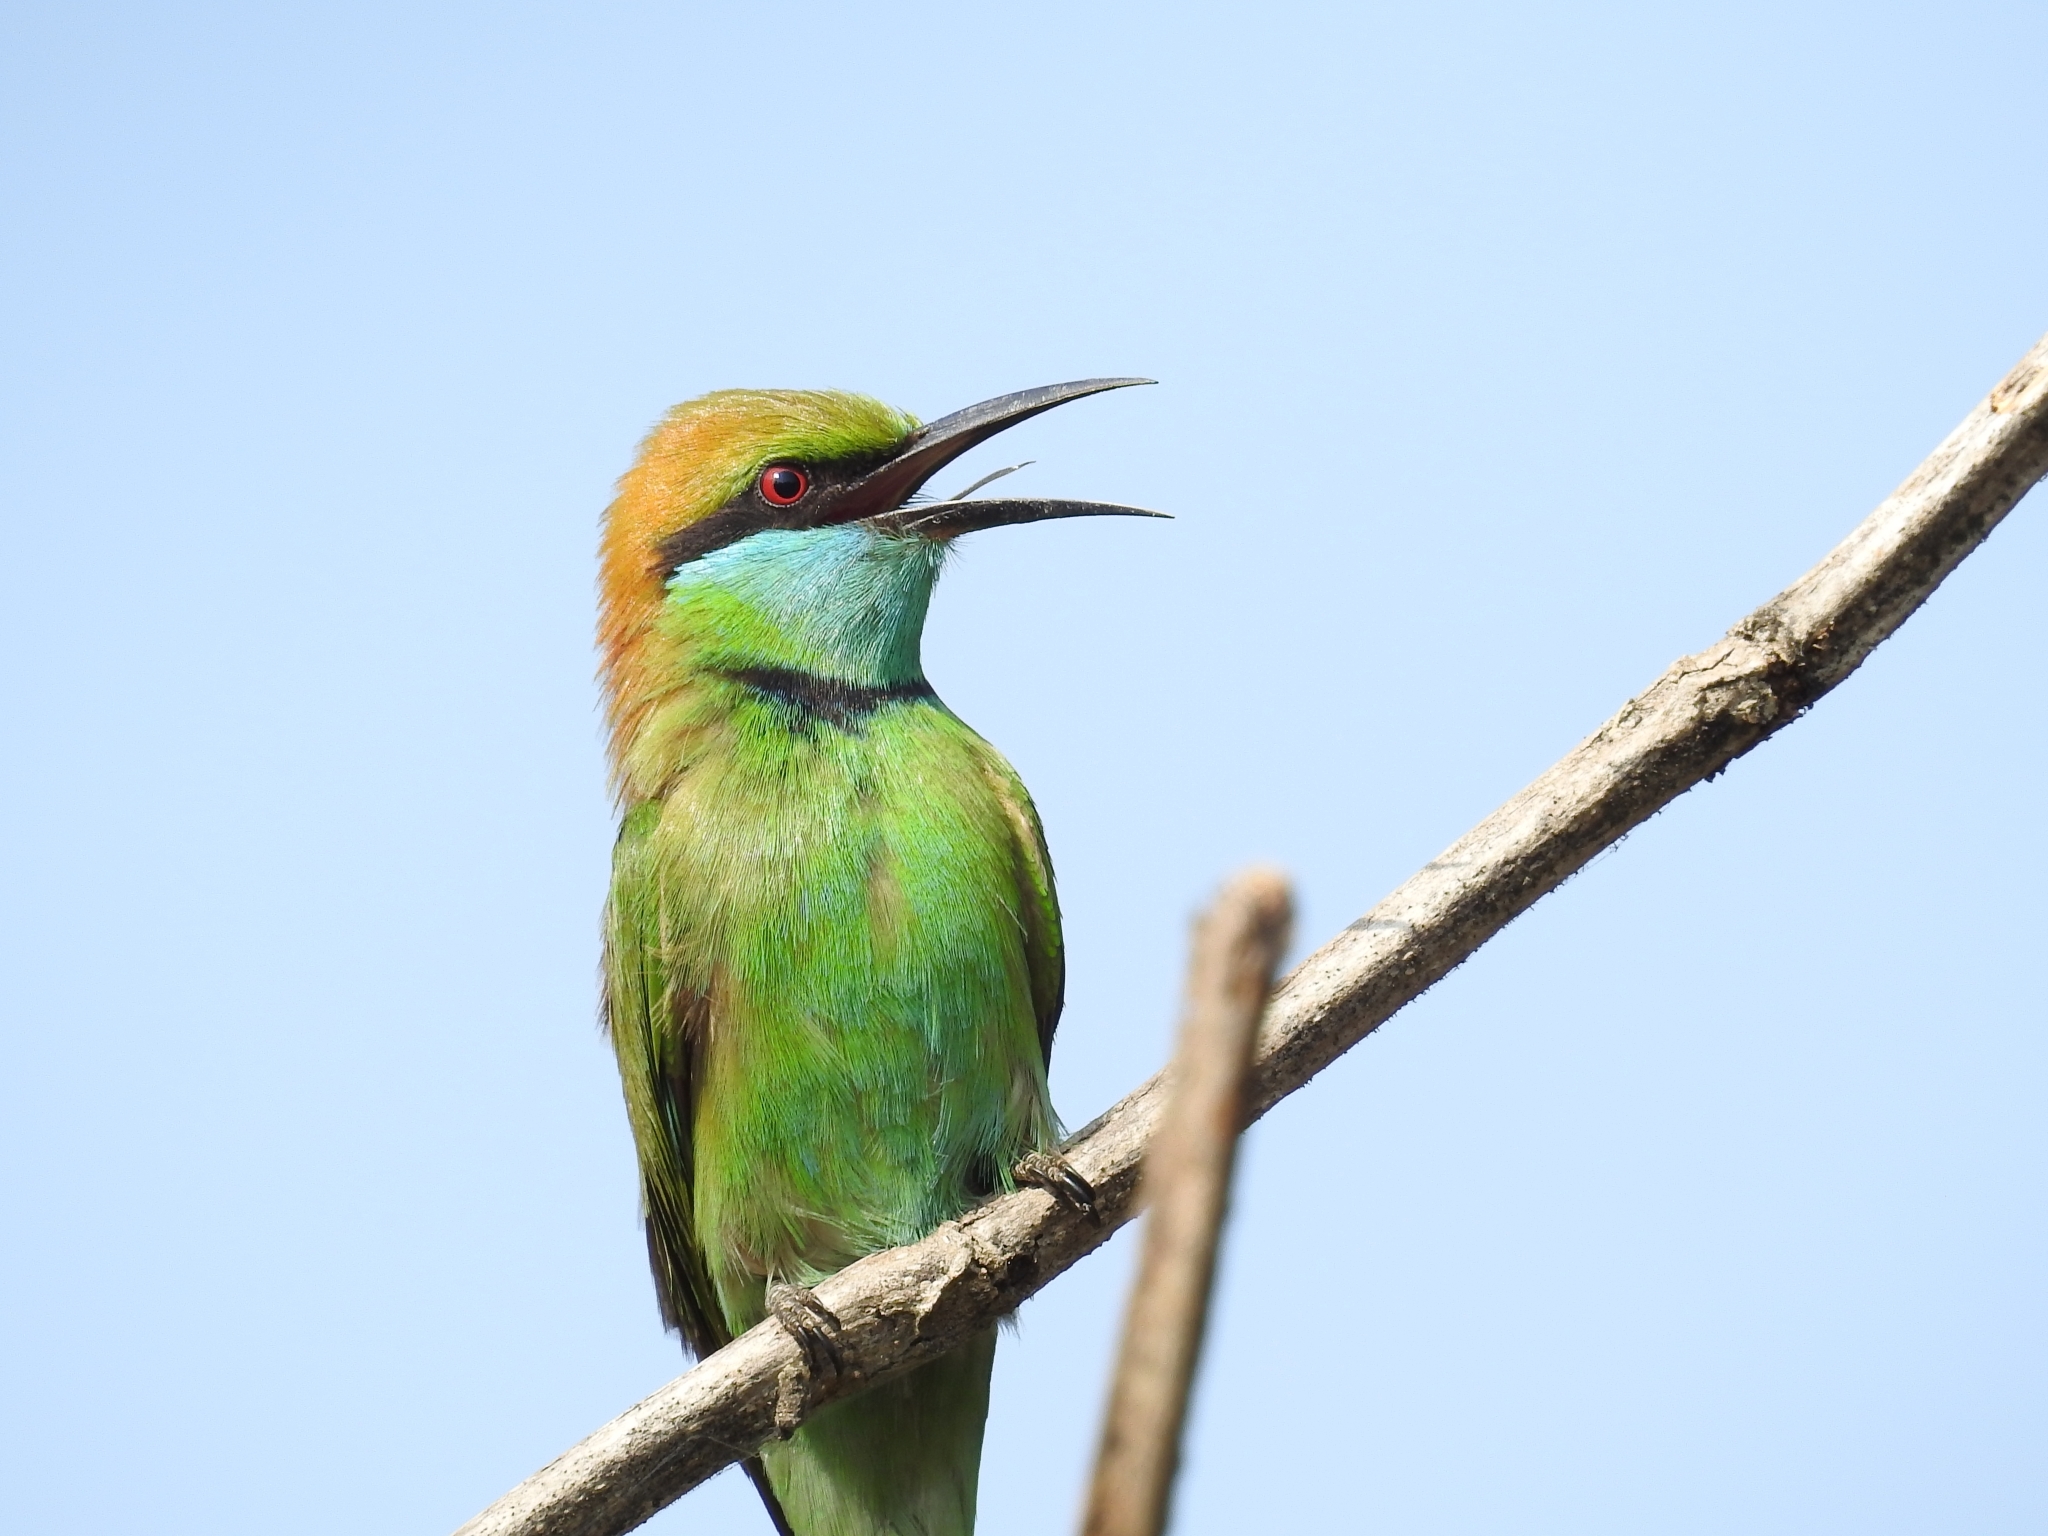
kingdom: Animalia
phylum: Chordata
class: Aves
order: Coraciiformes
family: Meropidae
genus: Merops
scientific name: Merops orientalis
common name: Green bee-eater
